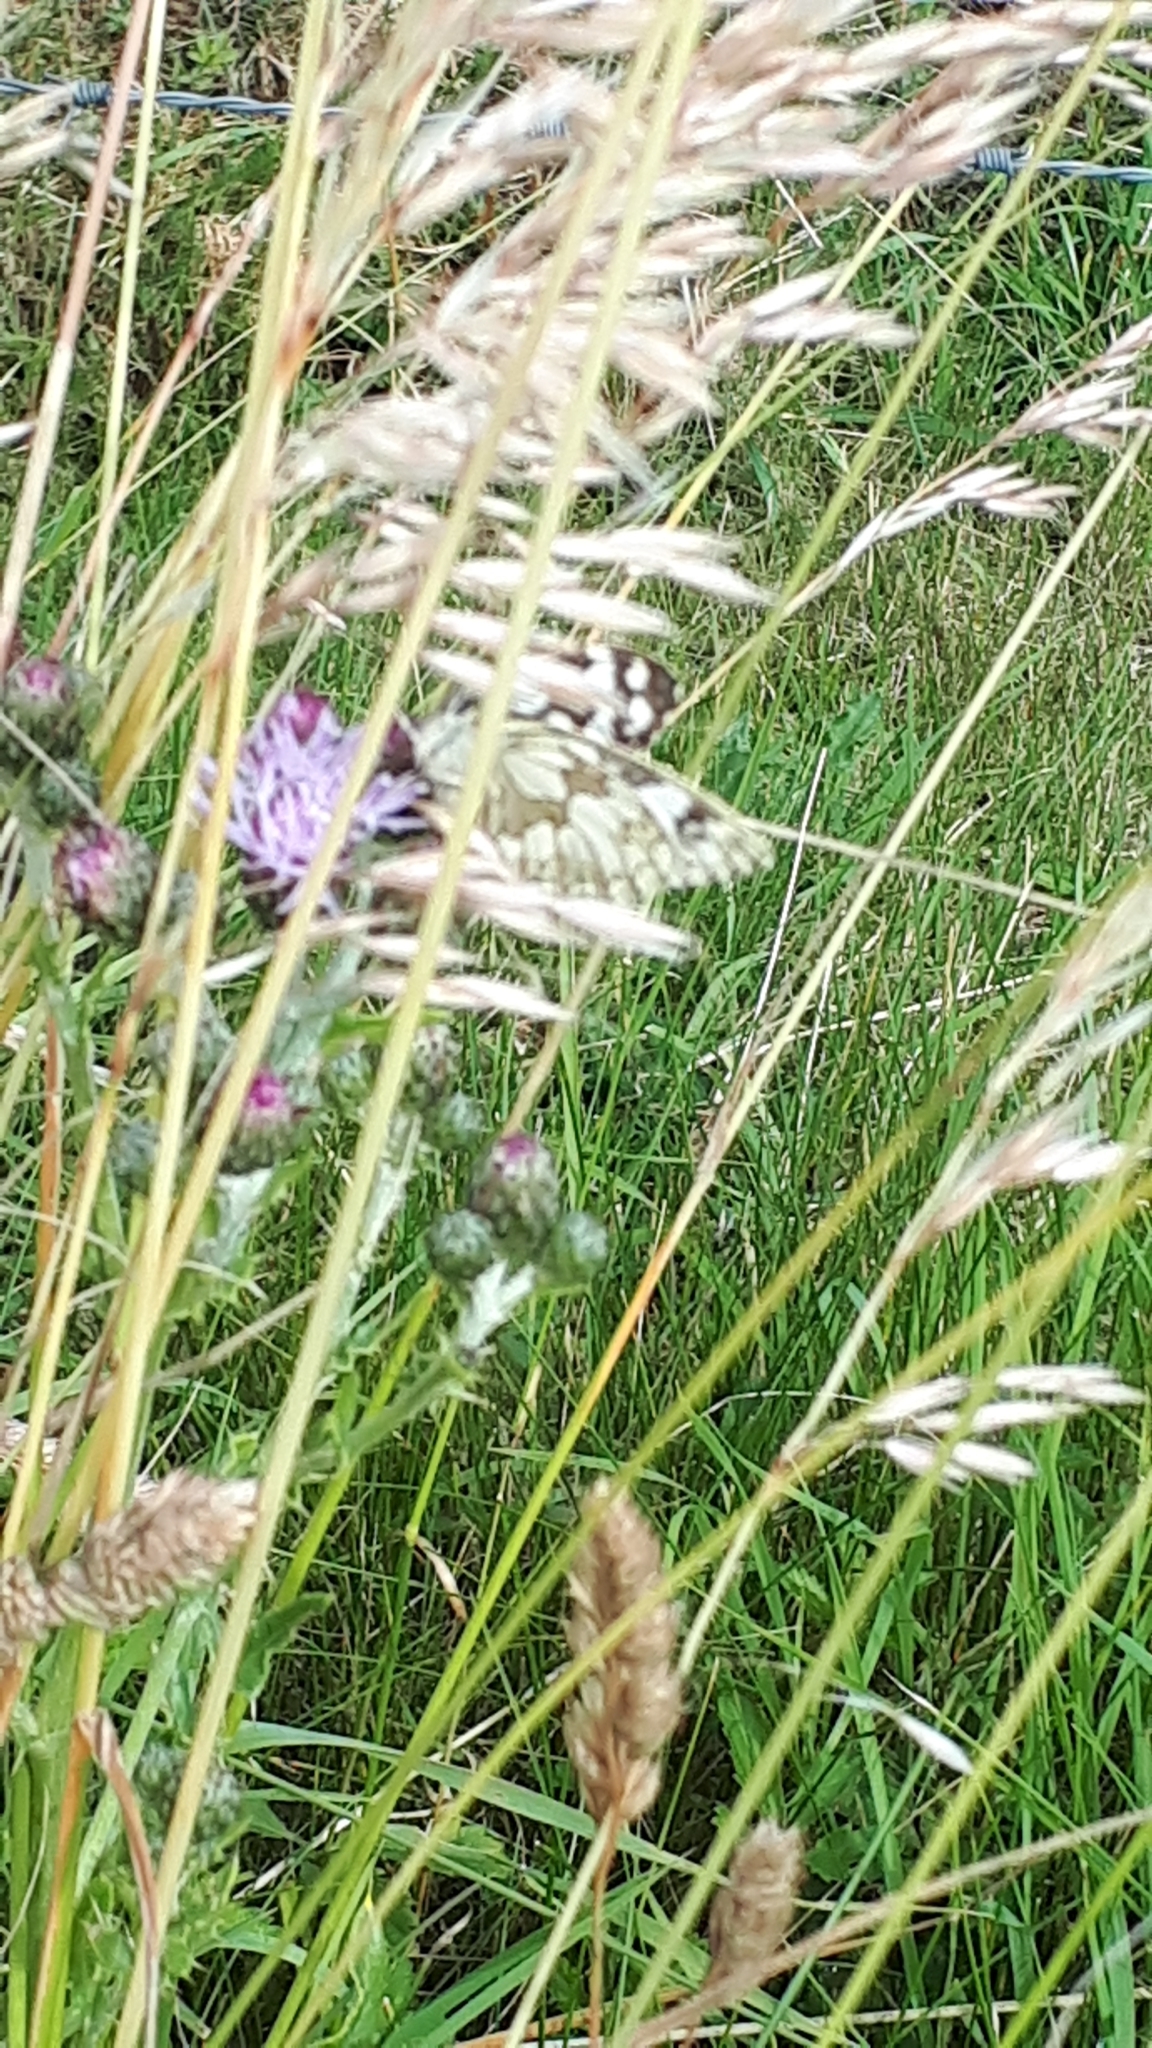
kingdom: Animalia
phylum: Arthropoda
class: Insecta
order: Lepidoptera
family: Nymphalidae
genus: Melanargia
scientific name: Melanargia galathea
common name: Marbled white
